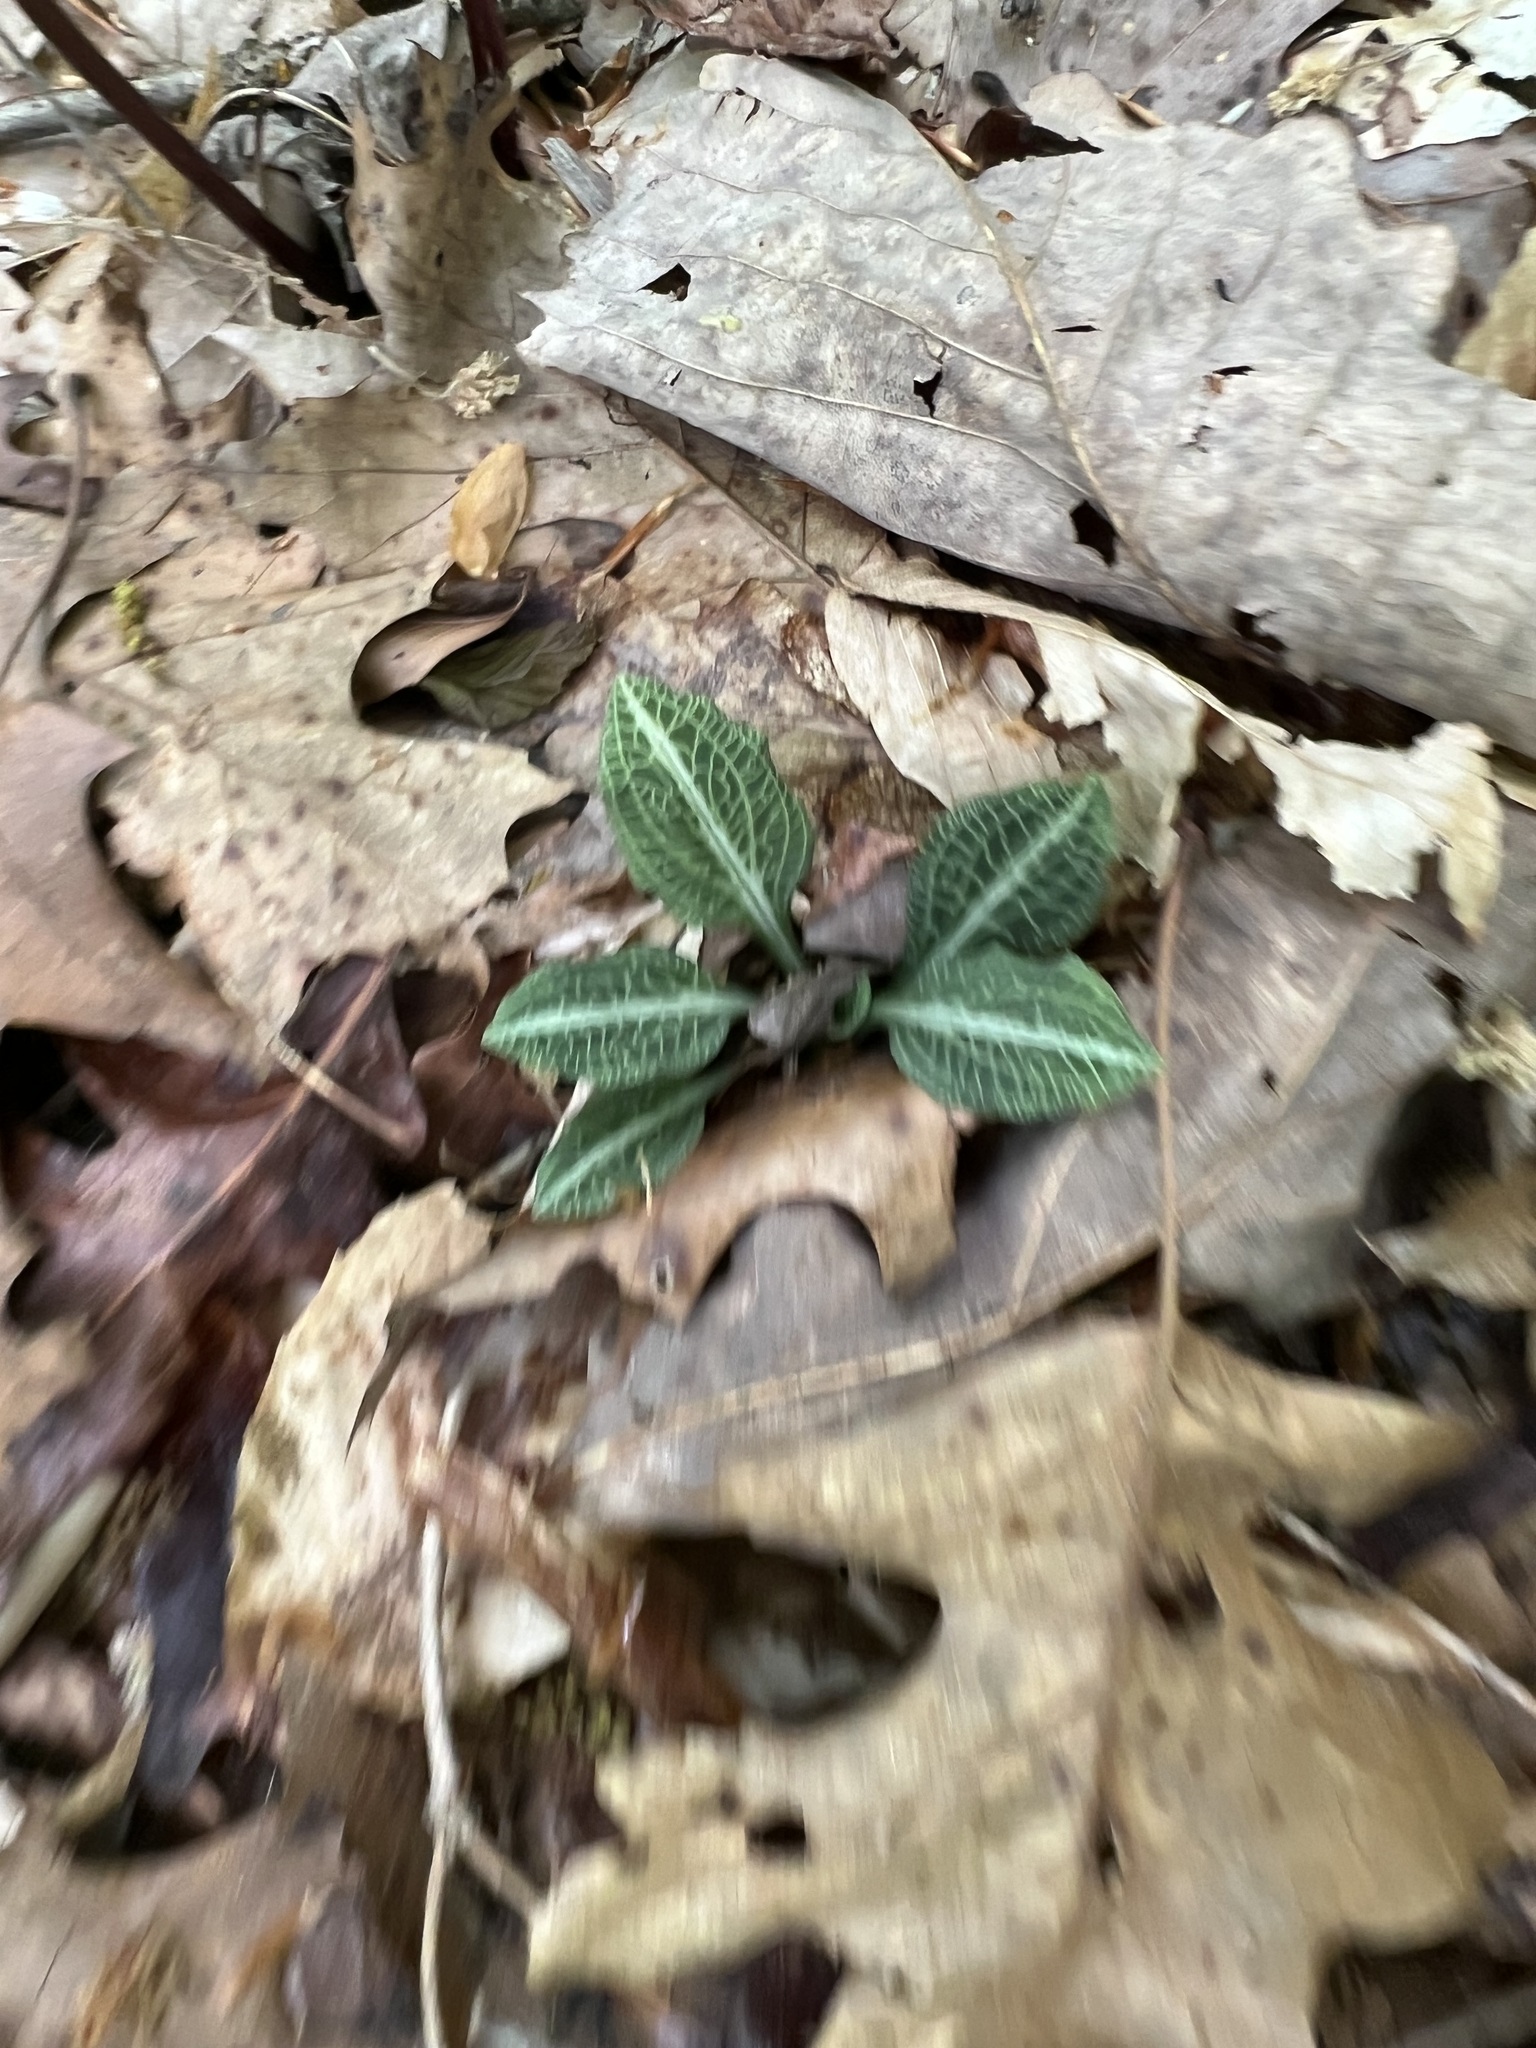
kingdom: Plantae
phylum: Tracheophyta
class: Liliopsida
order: Asparagales
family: Orchidaceae
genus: Goodyera
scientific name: Goodyera pubescens
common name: Downy rattlesnake-plantain
